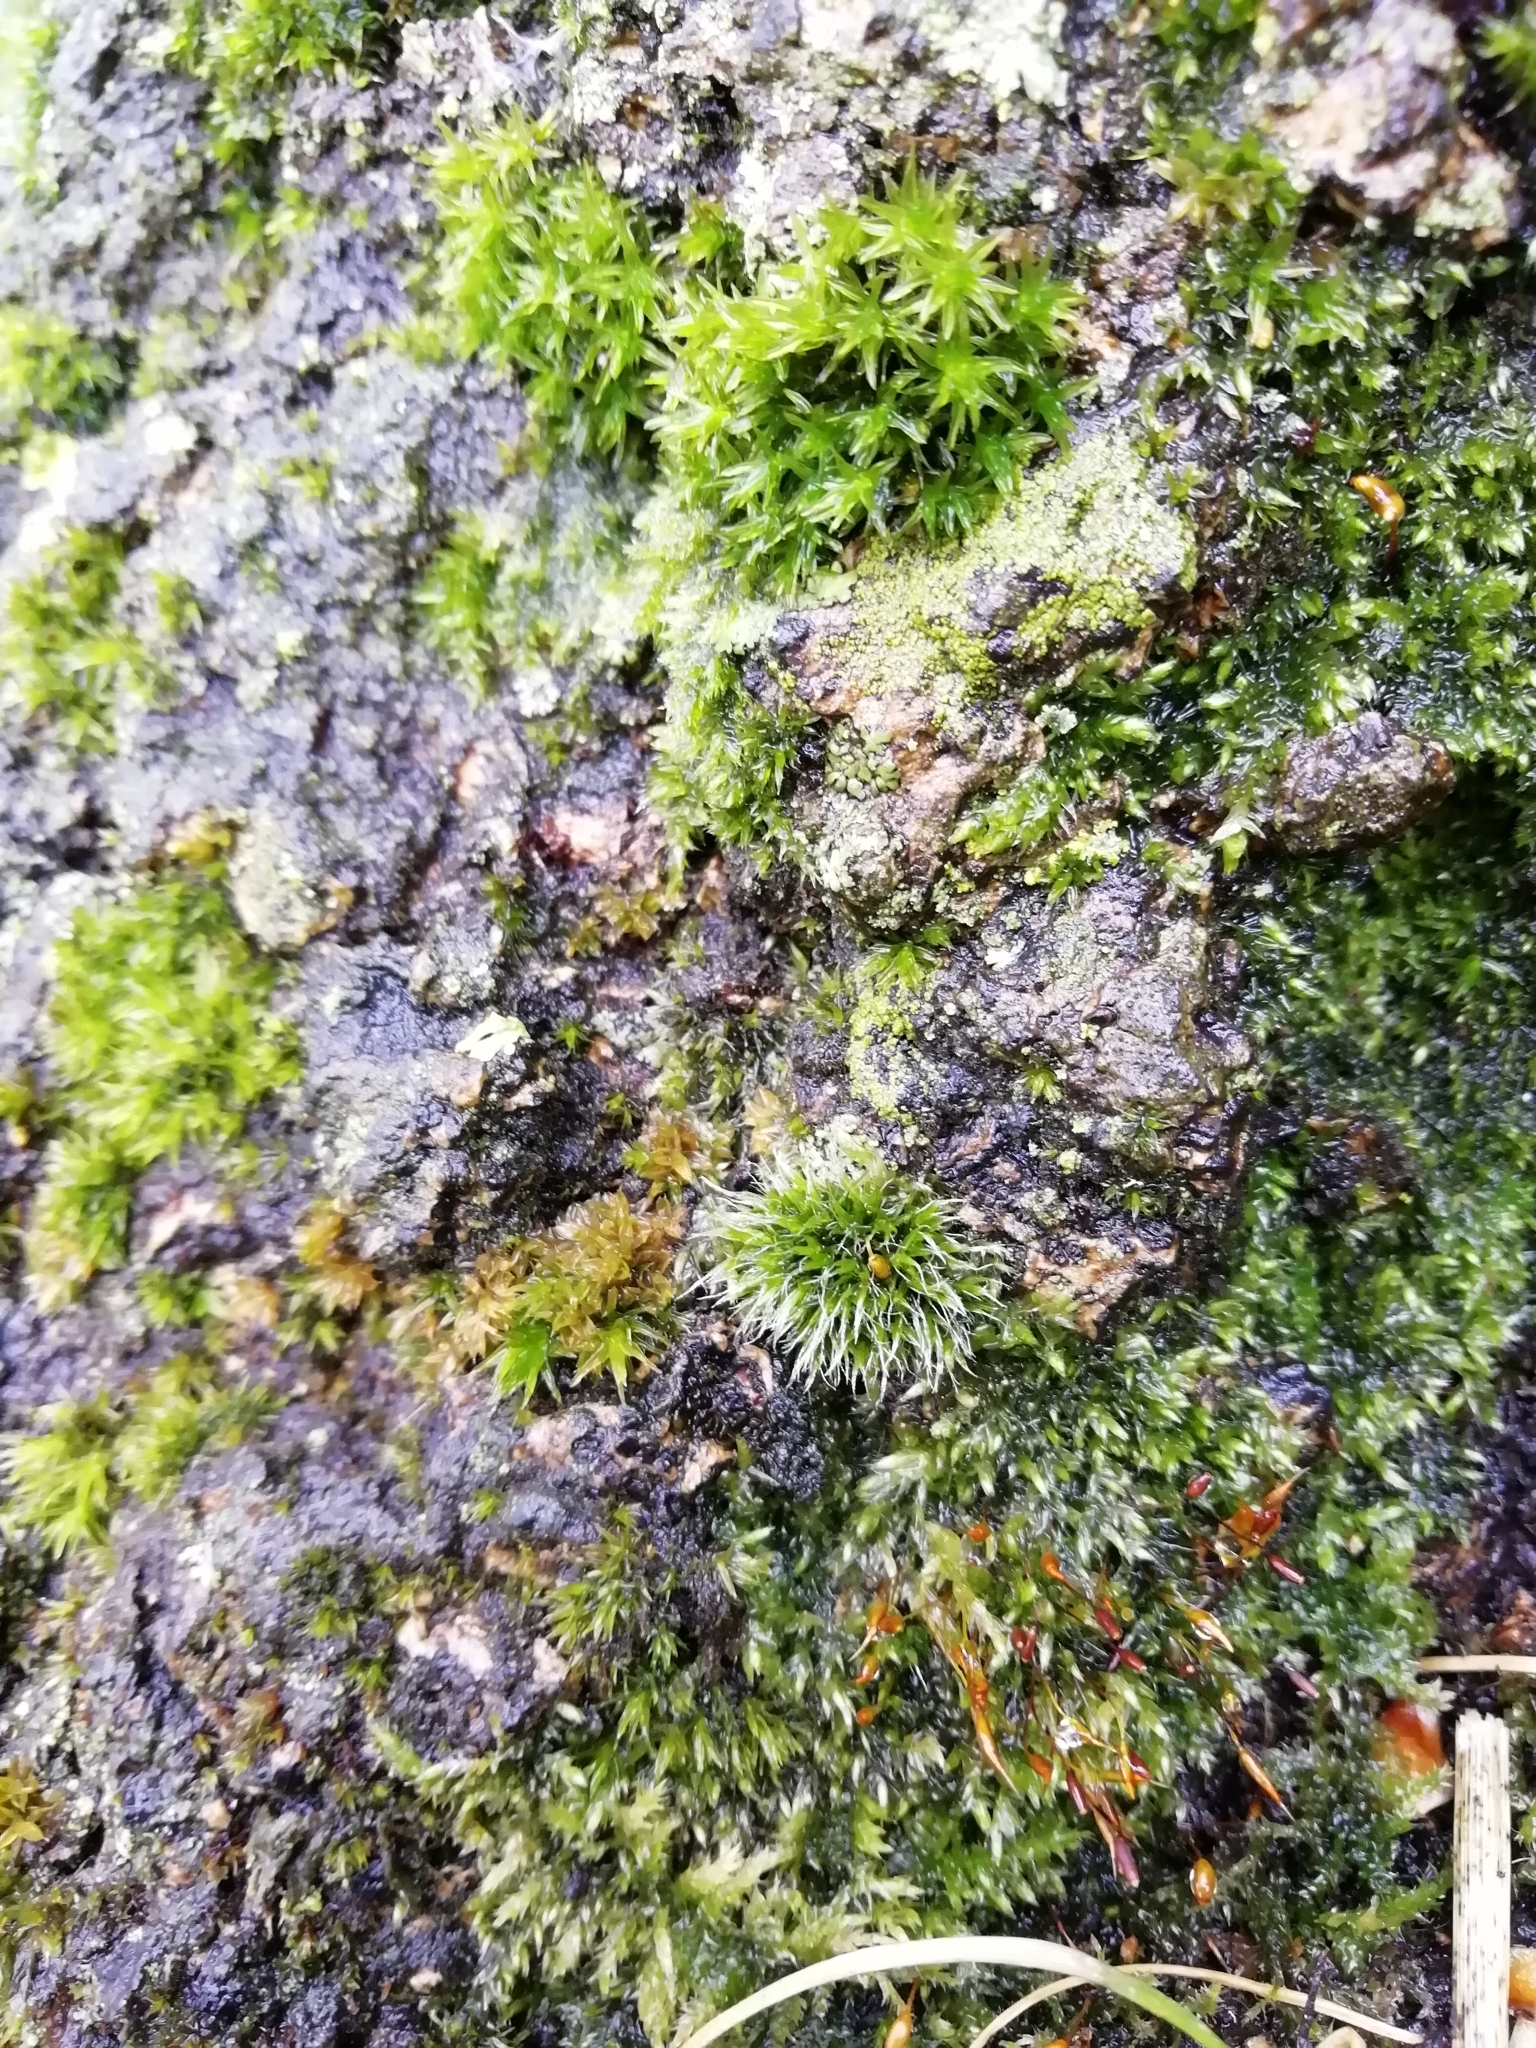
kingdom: Plantae
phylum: Bryophyta
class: Bryopsida
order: Grimmiales
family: Grimmiaceae
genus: Grimmia
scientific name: Grimmia pulvinata
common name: Grey-cushioned grimmia
